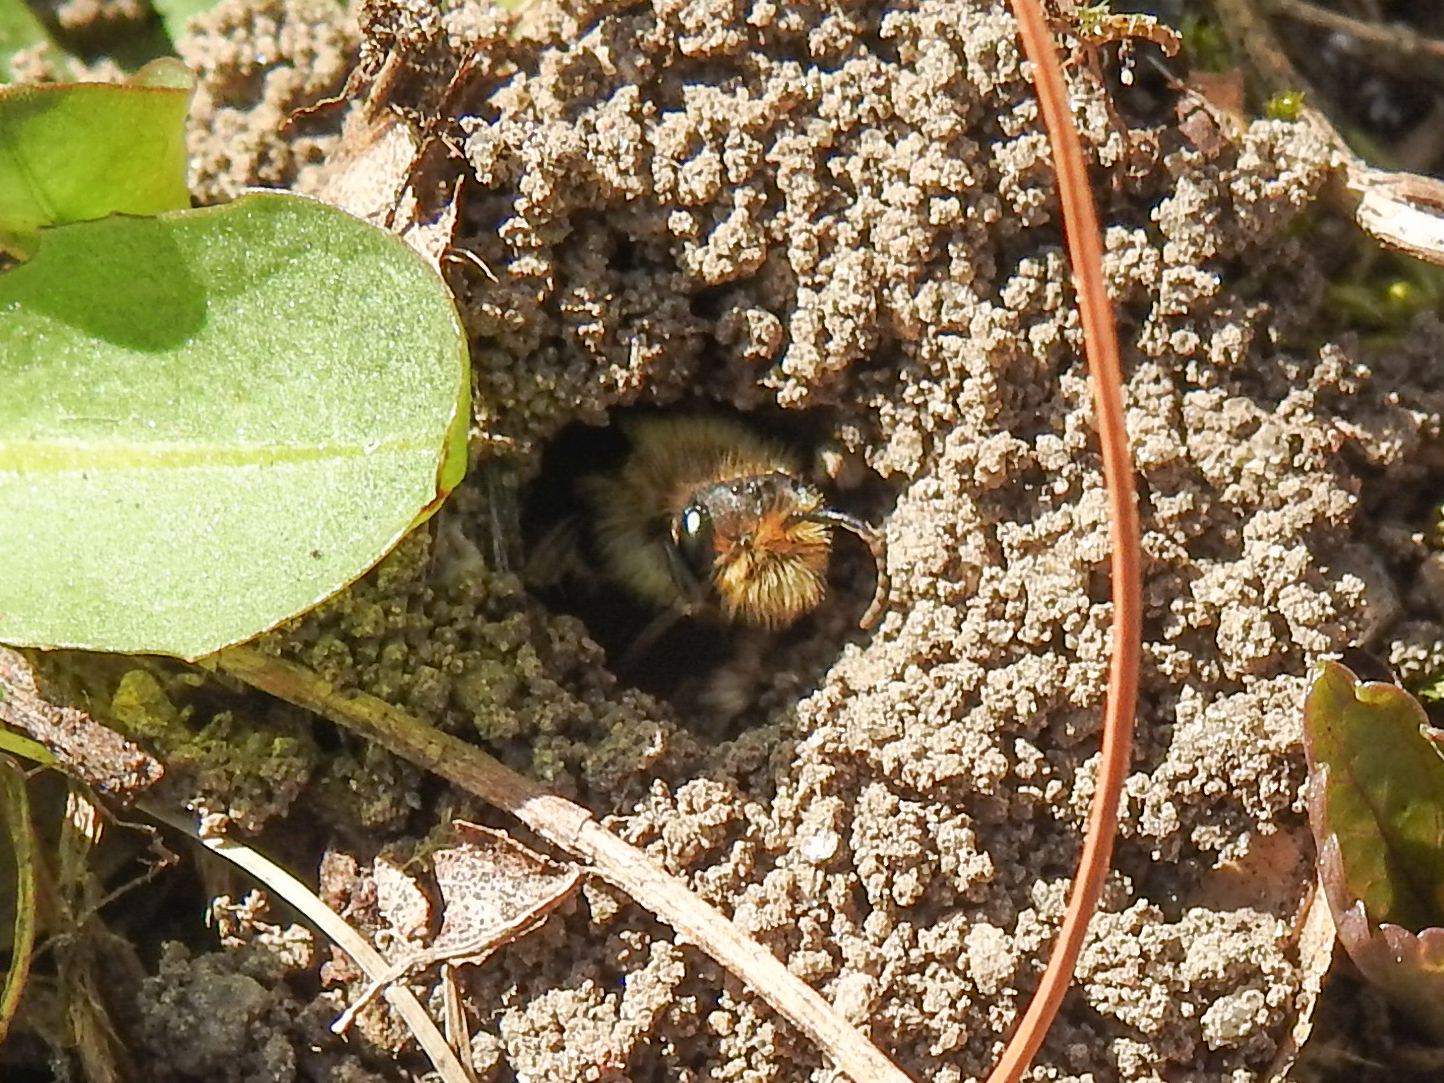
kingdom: Animalia
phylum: Arthropoda
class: Insecta
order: Hymenoptera
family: Andrenidae
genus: Andrena
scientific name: Andrena dunningi
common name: Dunning's miner
